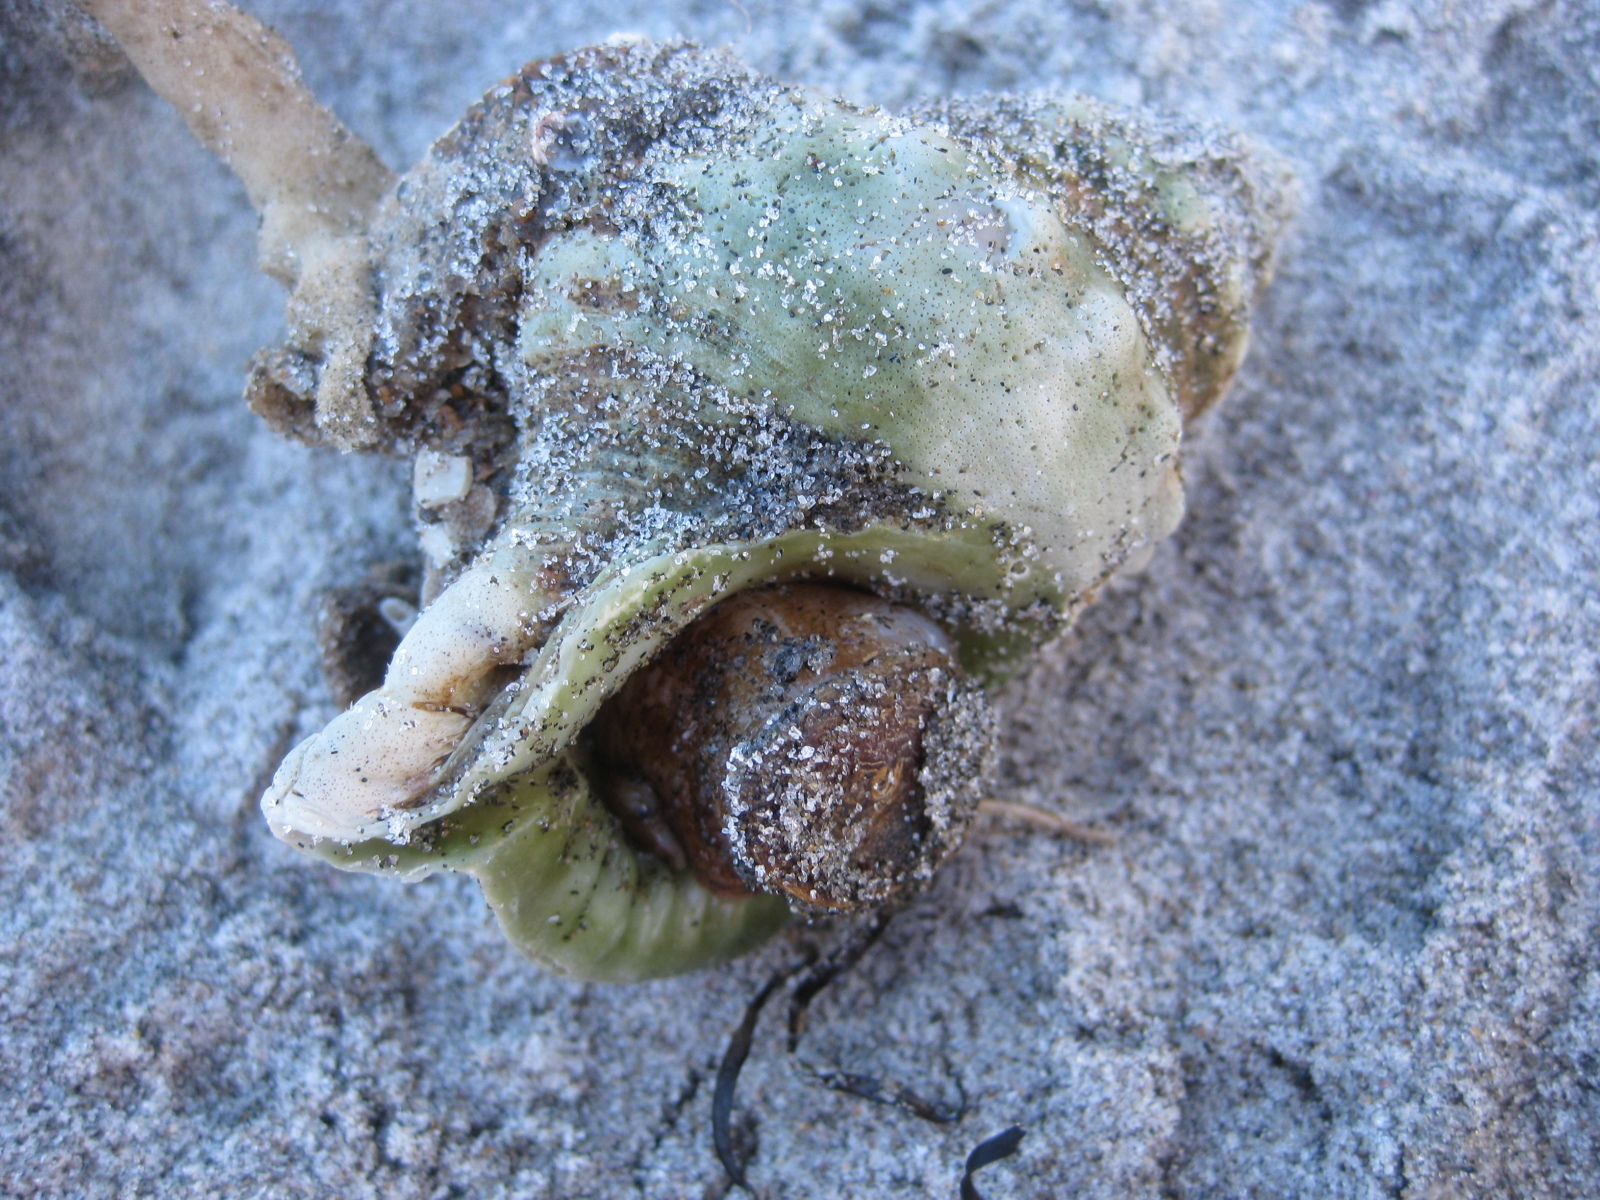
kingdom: Animalia
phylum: Mollusca
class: Gastropoda
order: Littorinimorpha
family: Ranellidae
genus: Ranella
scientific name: Ranella australasia
